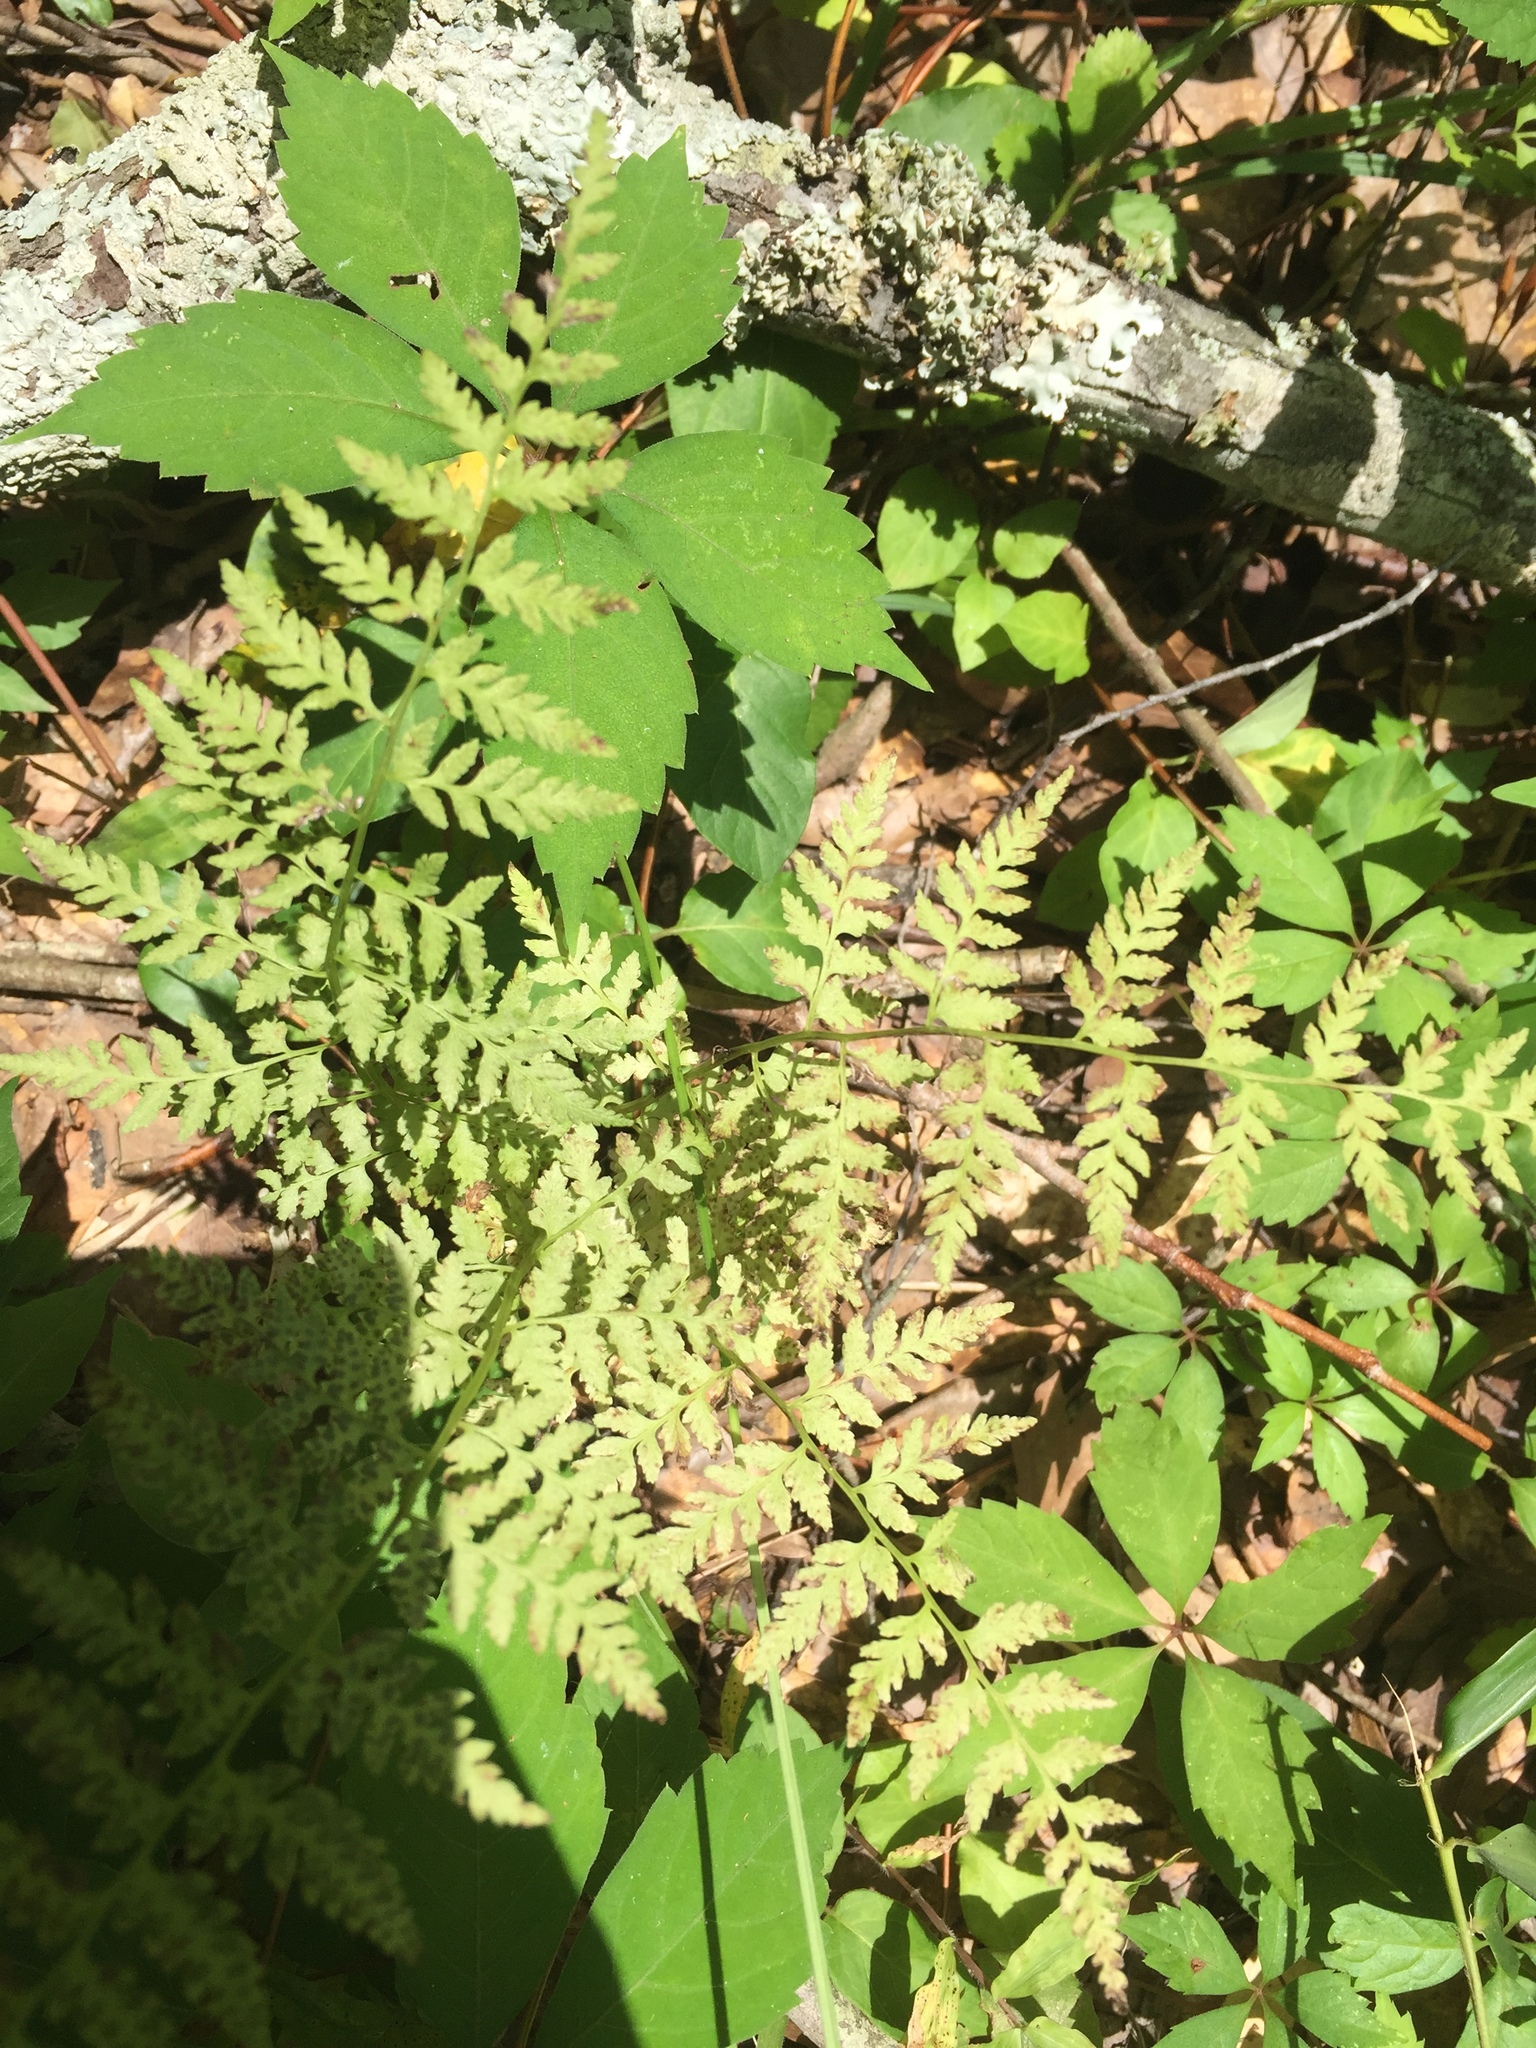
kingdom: Plantae
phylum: Tracheophyta
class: Polypodiopsida
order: Polypodiales
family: Cystopteridaceae
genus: Cystopteris
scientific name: Cystopteris protrusa
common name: Lowland brittle fern
